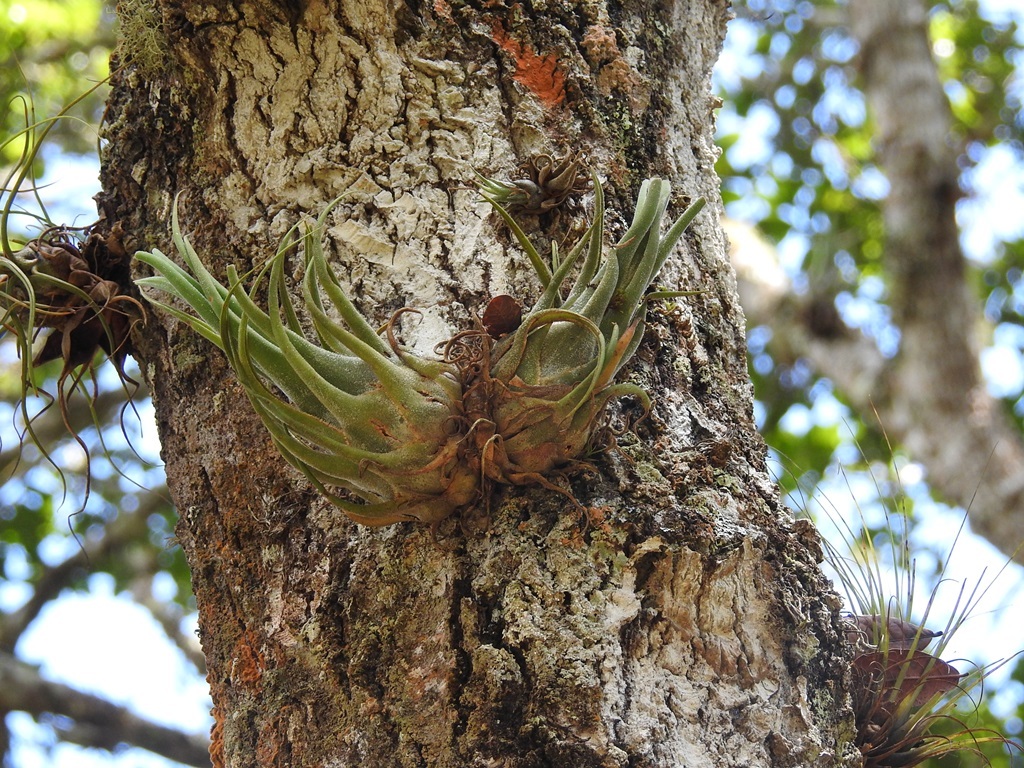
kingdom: Plantae
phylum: Tracheophyta
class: Liliopsida
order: Poales
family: Bromeliaceae
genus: Tillandsia
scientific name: Tillandsia seleriana
